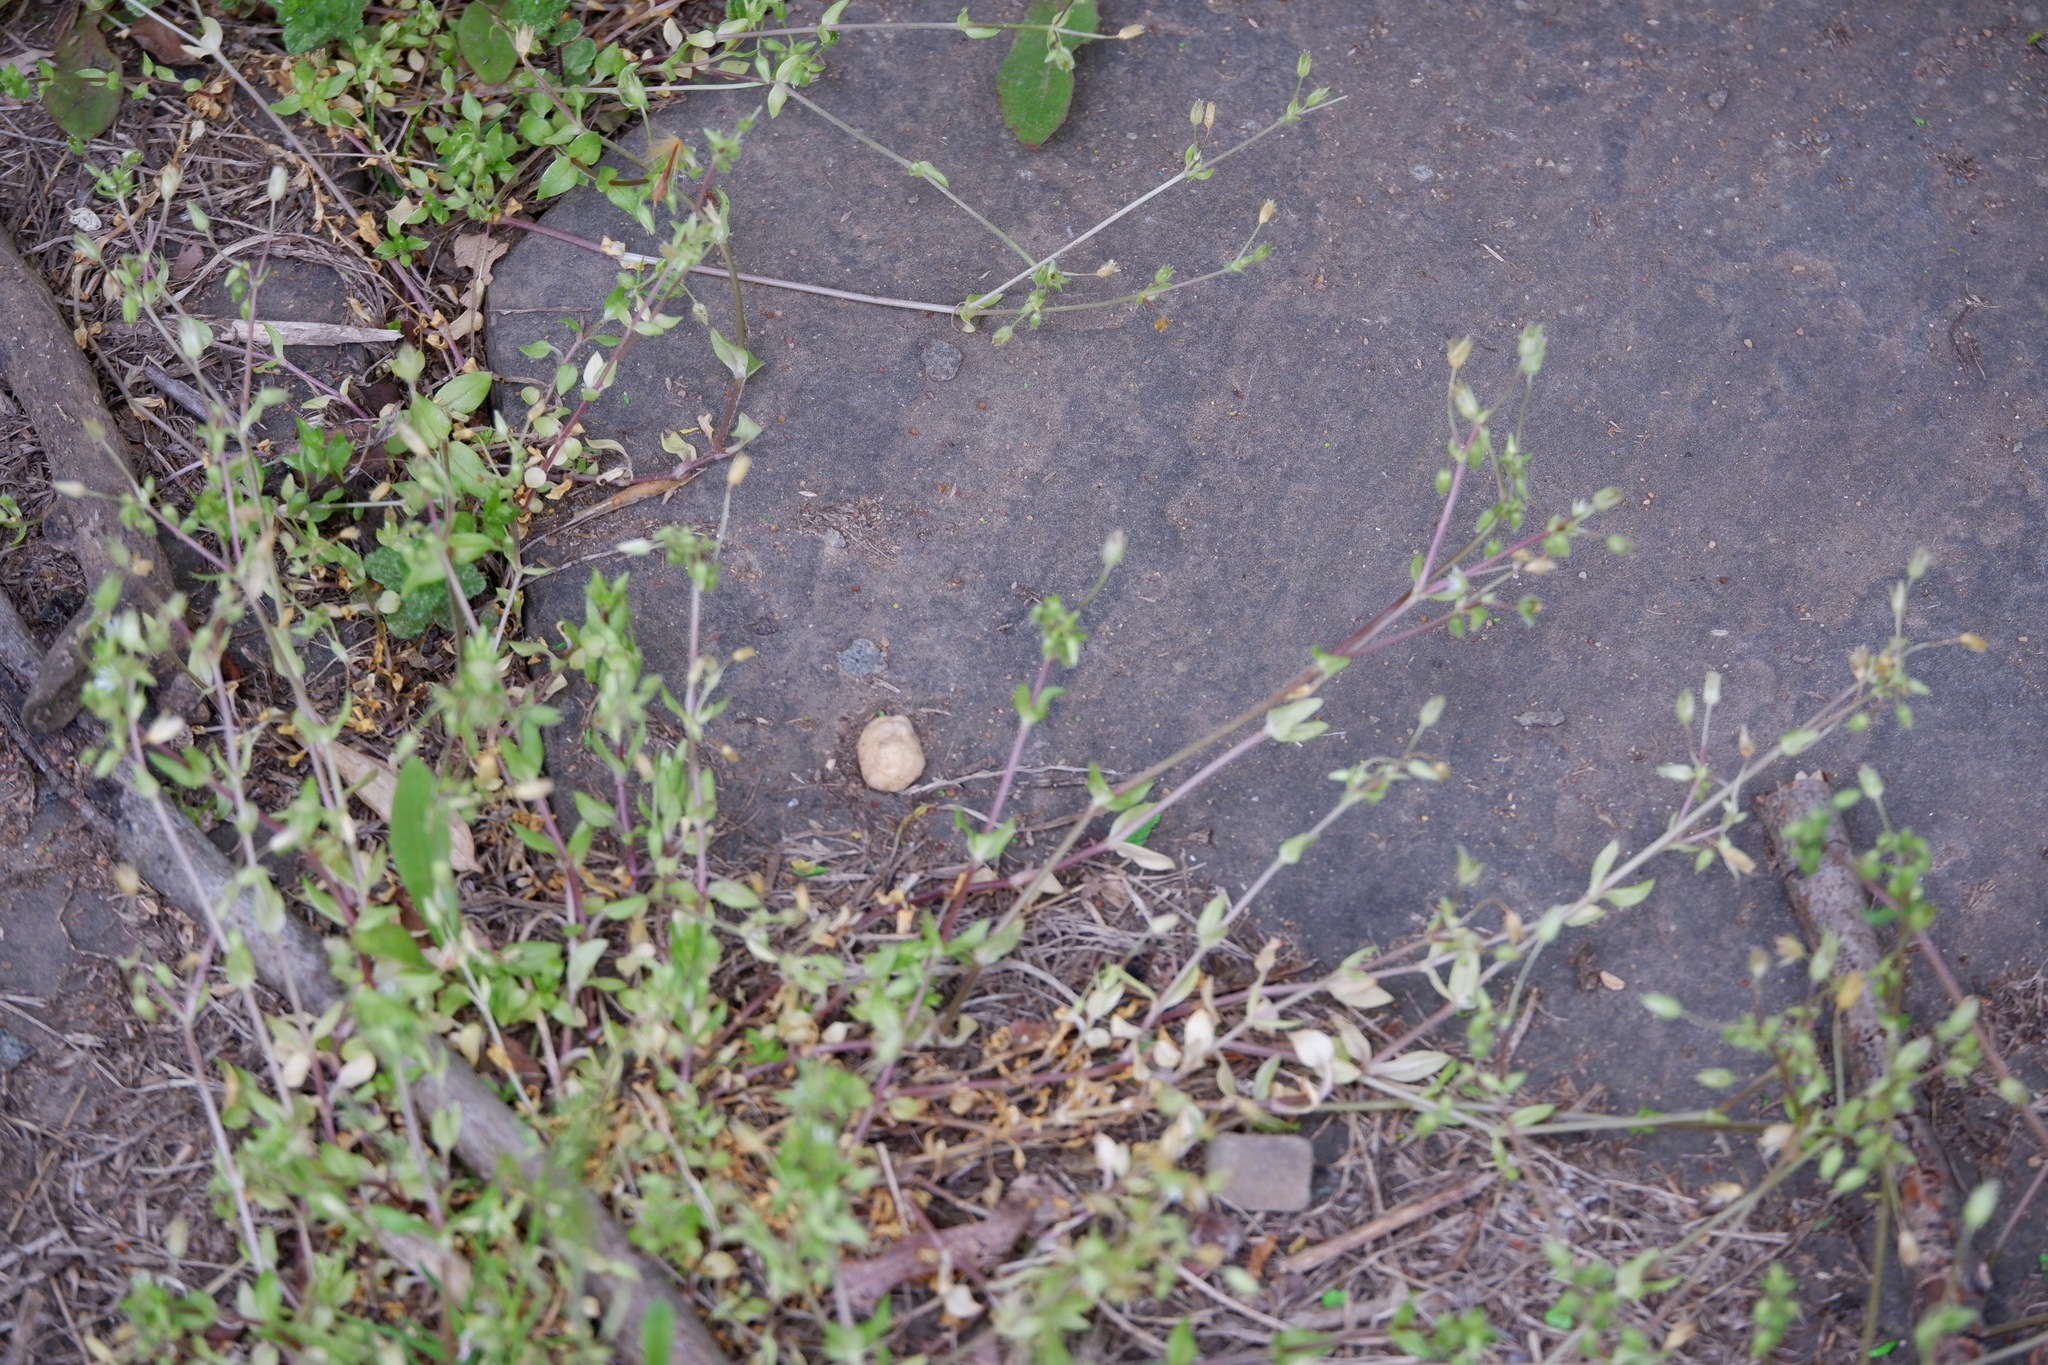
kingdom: Plantae
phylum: Tracheophyta
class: Magnoliopsida
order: Caryophyllales
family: Caryophyllaceae
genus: Stellaria
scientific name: Stellaria media
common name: Common chickweed
